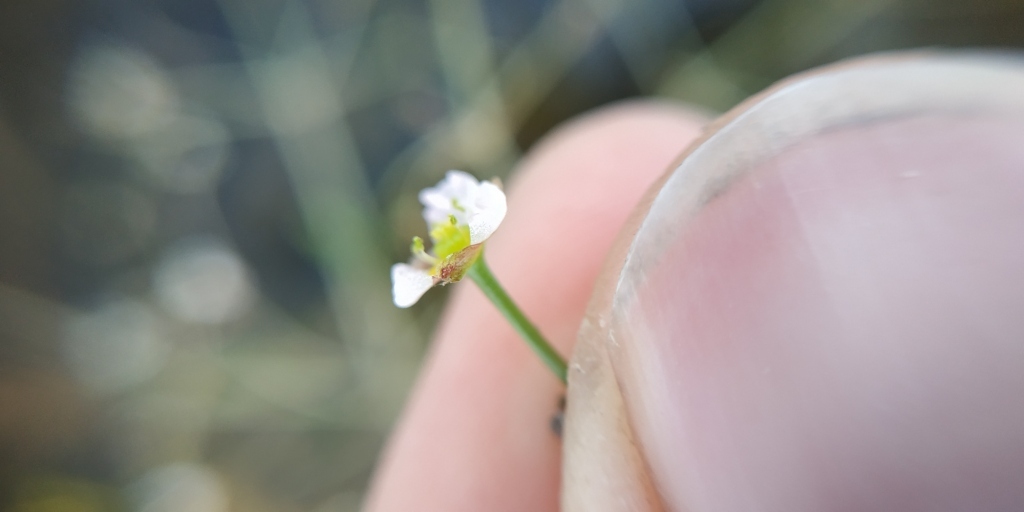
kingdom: Plantae
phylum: Tracheophyta
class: Liliopsida
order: Alismatales
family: Alismataceae
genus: Alisma
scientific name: Alisma gramineum
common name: Ribbon-leaved water-plantain
